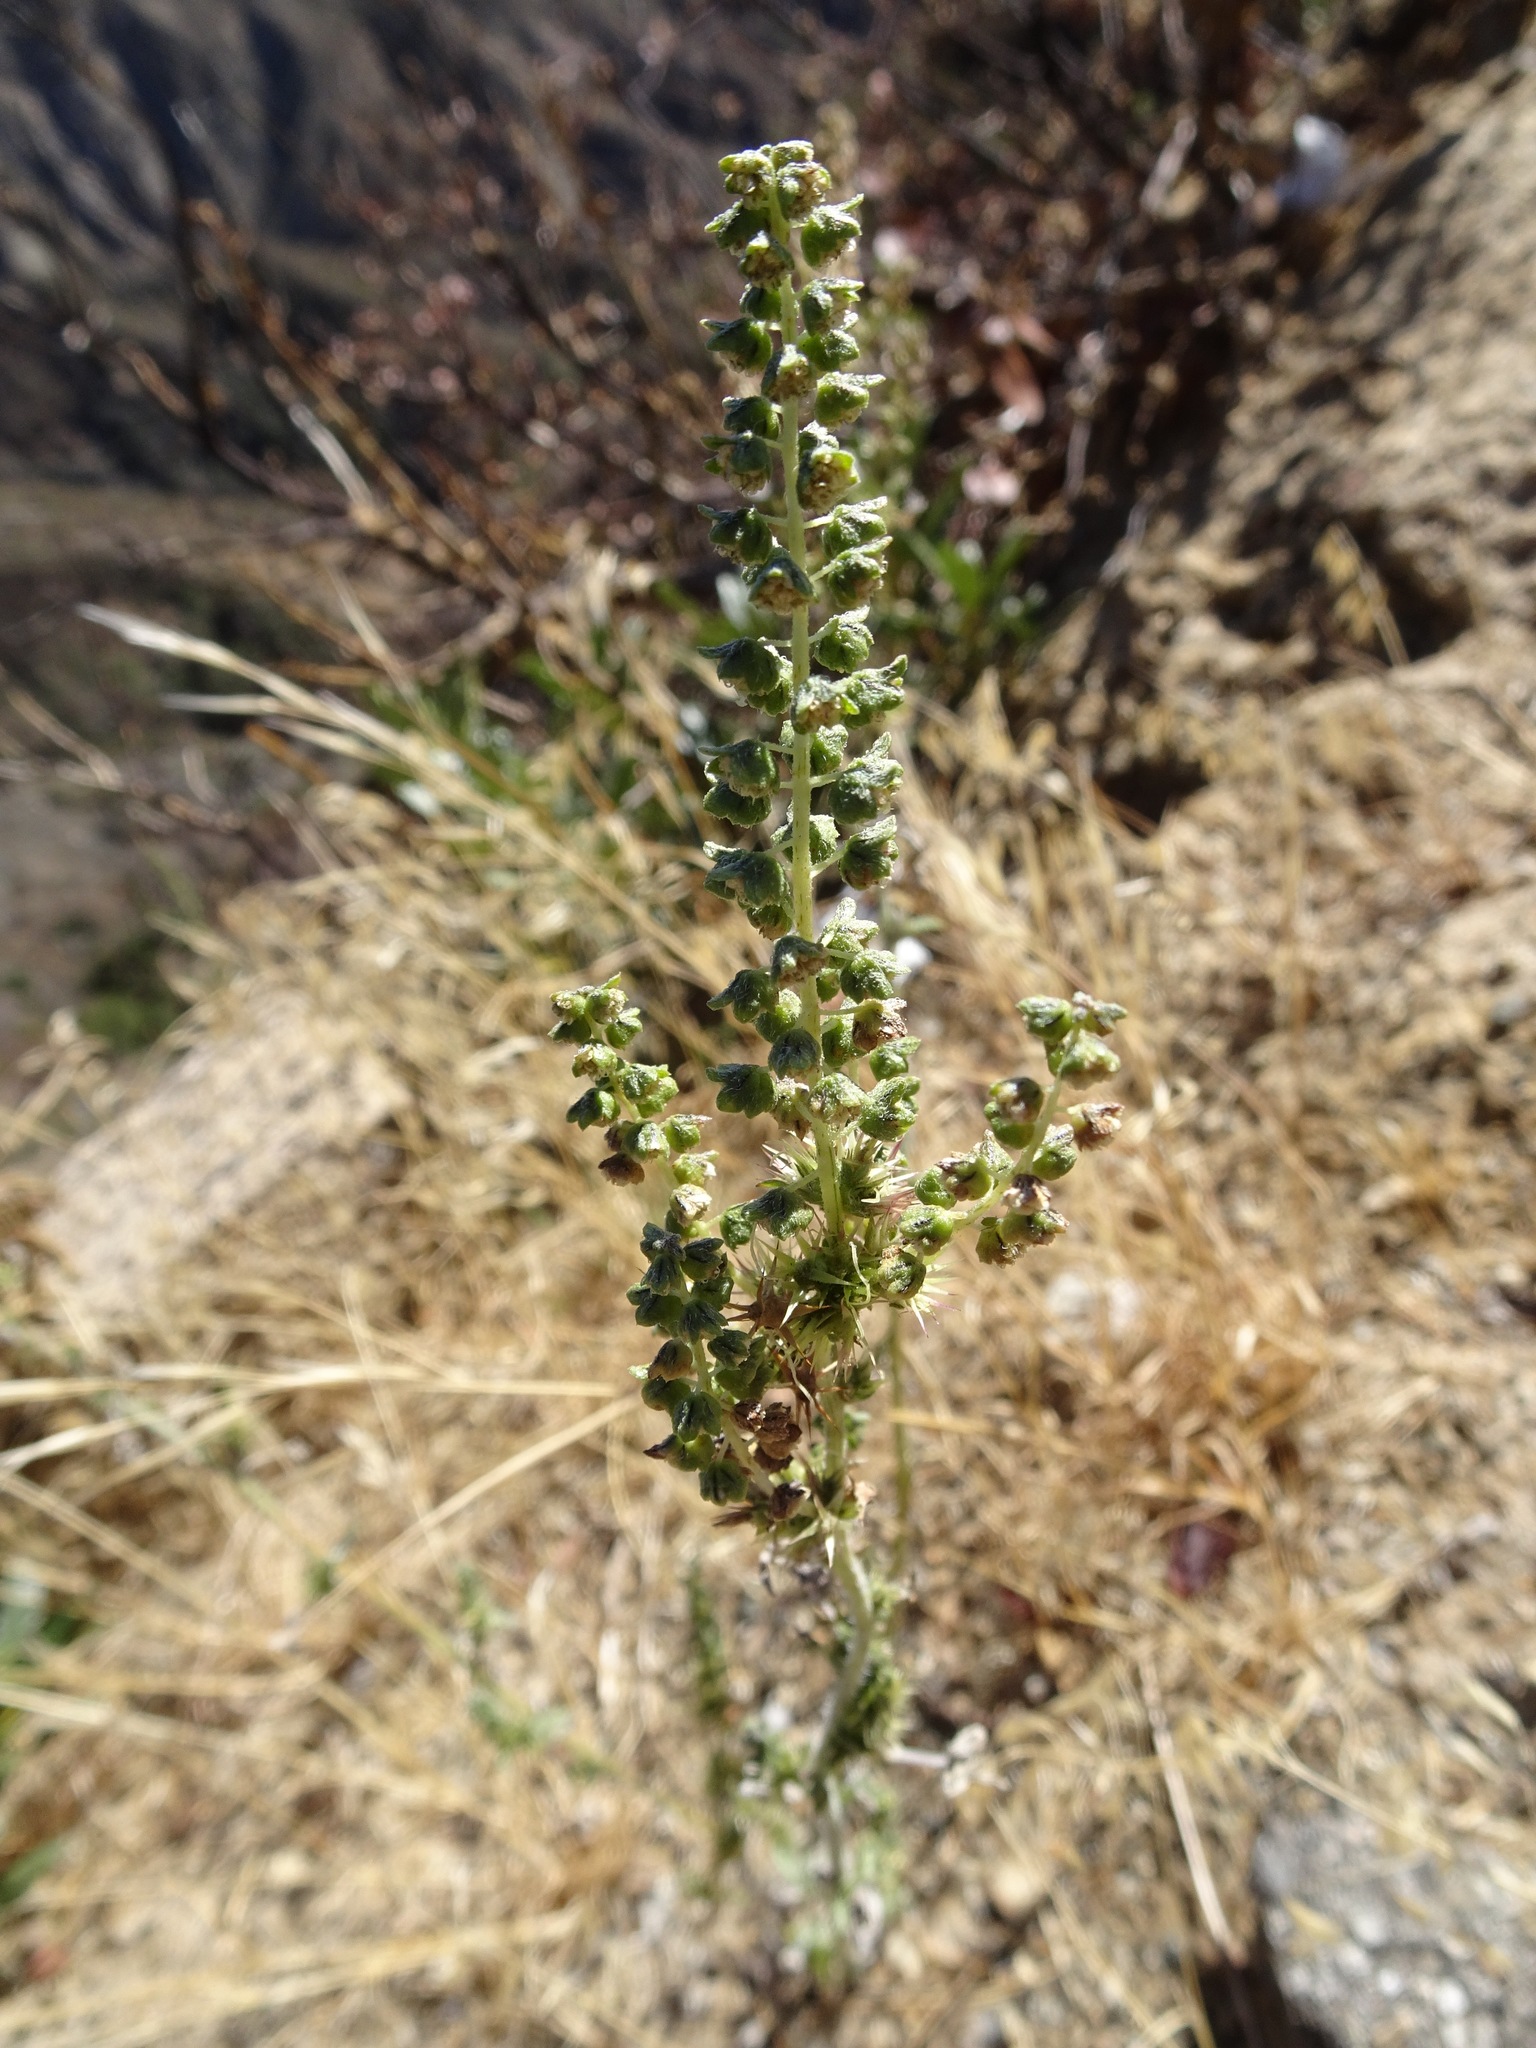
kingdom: Plantae
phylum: Tracheophyta
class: Magnoliopsida
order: Asterales
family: Asteraceae
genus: Ambrosia
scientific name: Ambrosia acanthicarpa
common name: Hooker's bur ragweed
